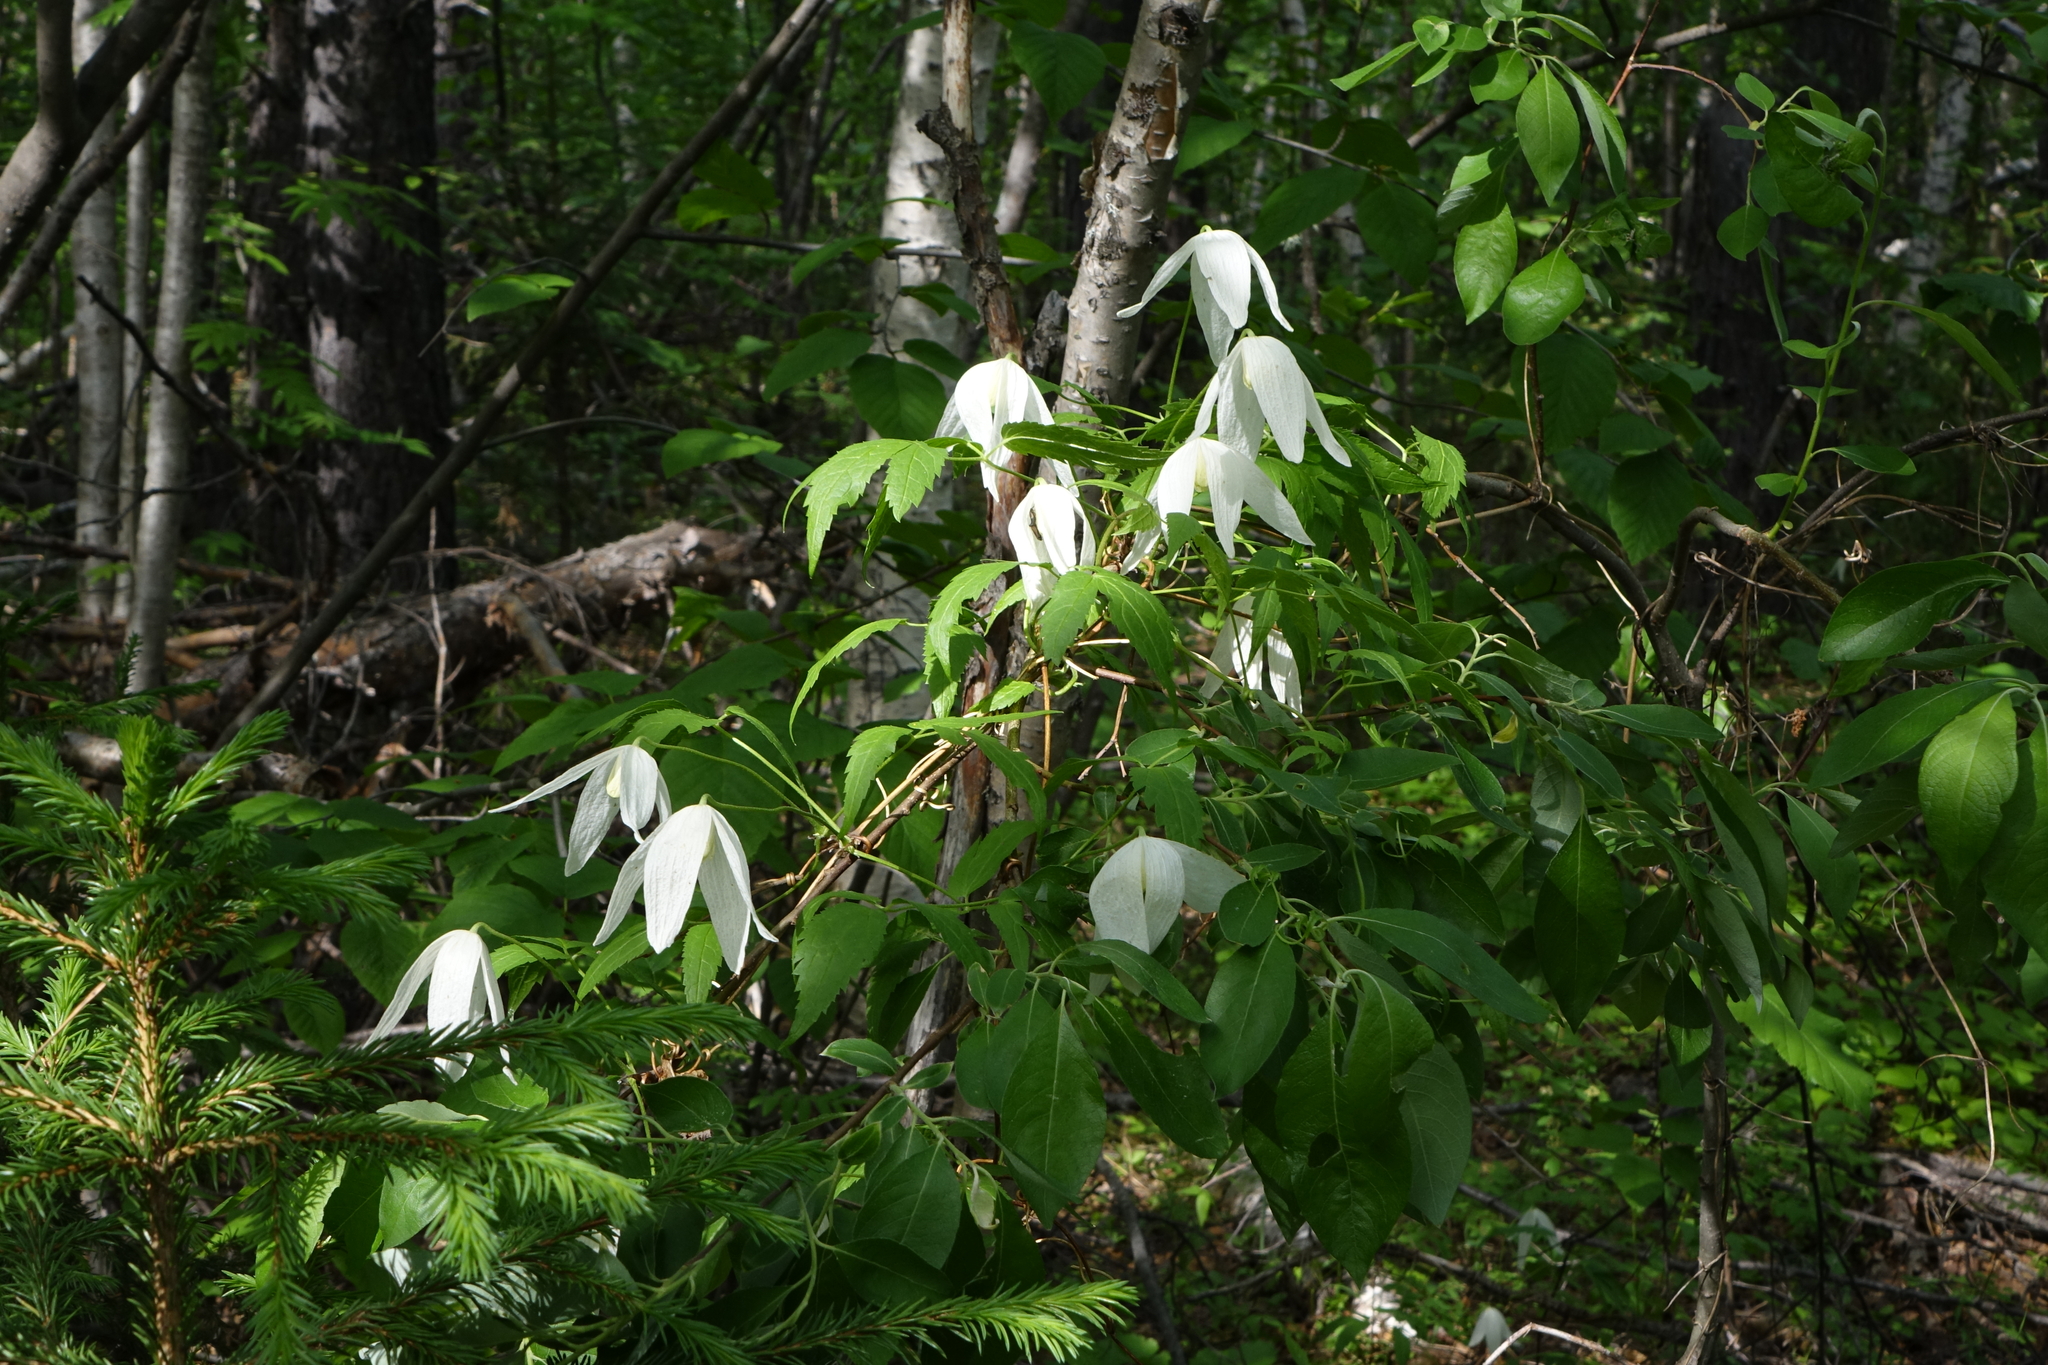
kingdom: Plantae
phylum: Tracheophyta
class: Magnoliopsida
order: Ranunculales
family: Ranunculaceae
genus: Clematis
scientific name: Clematis sibirica
